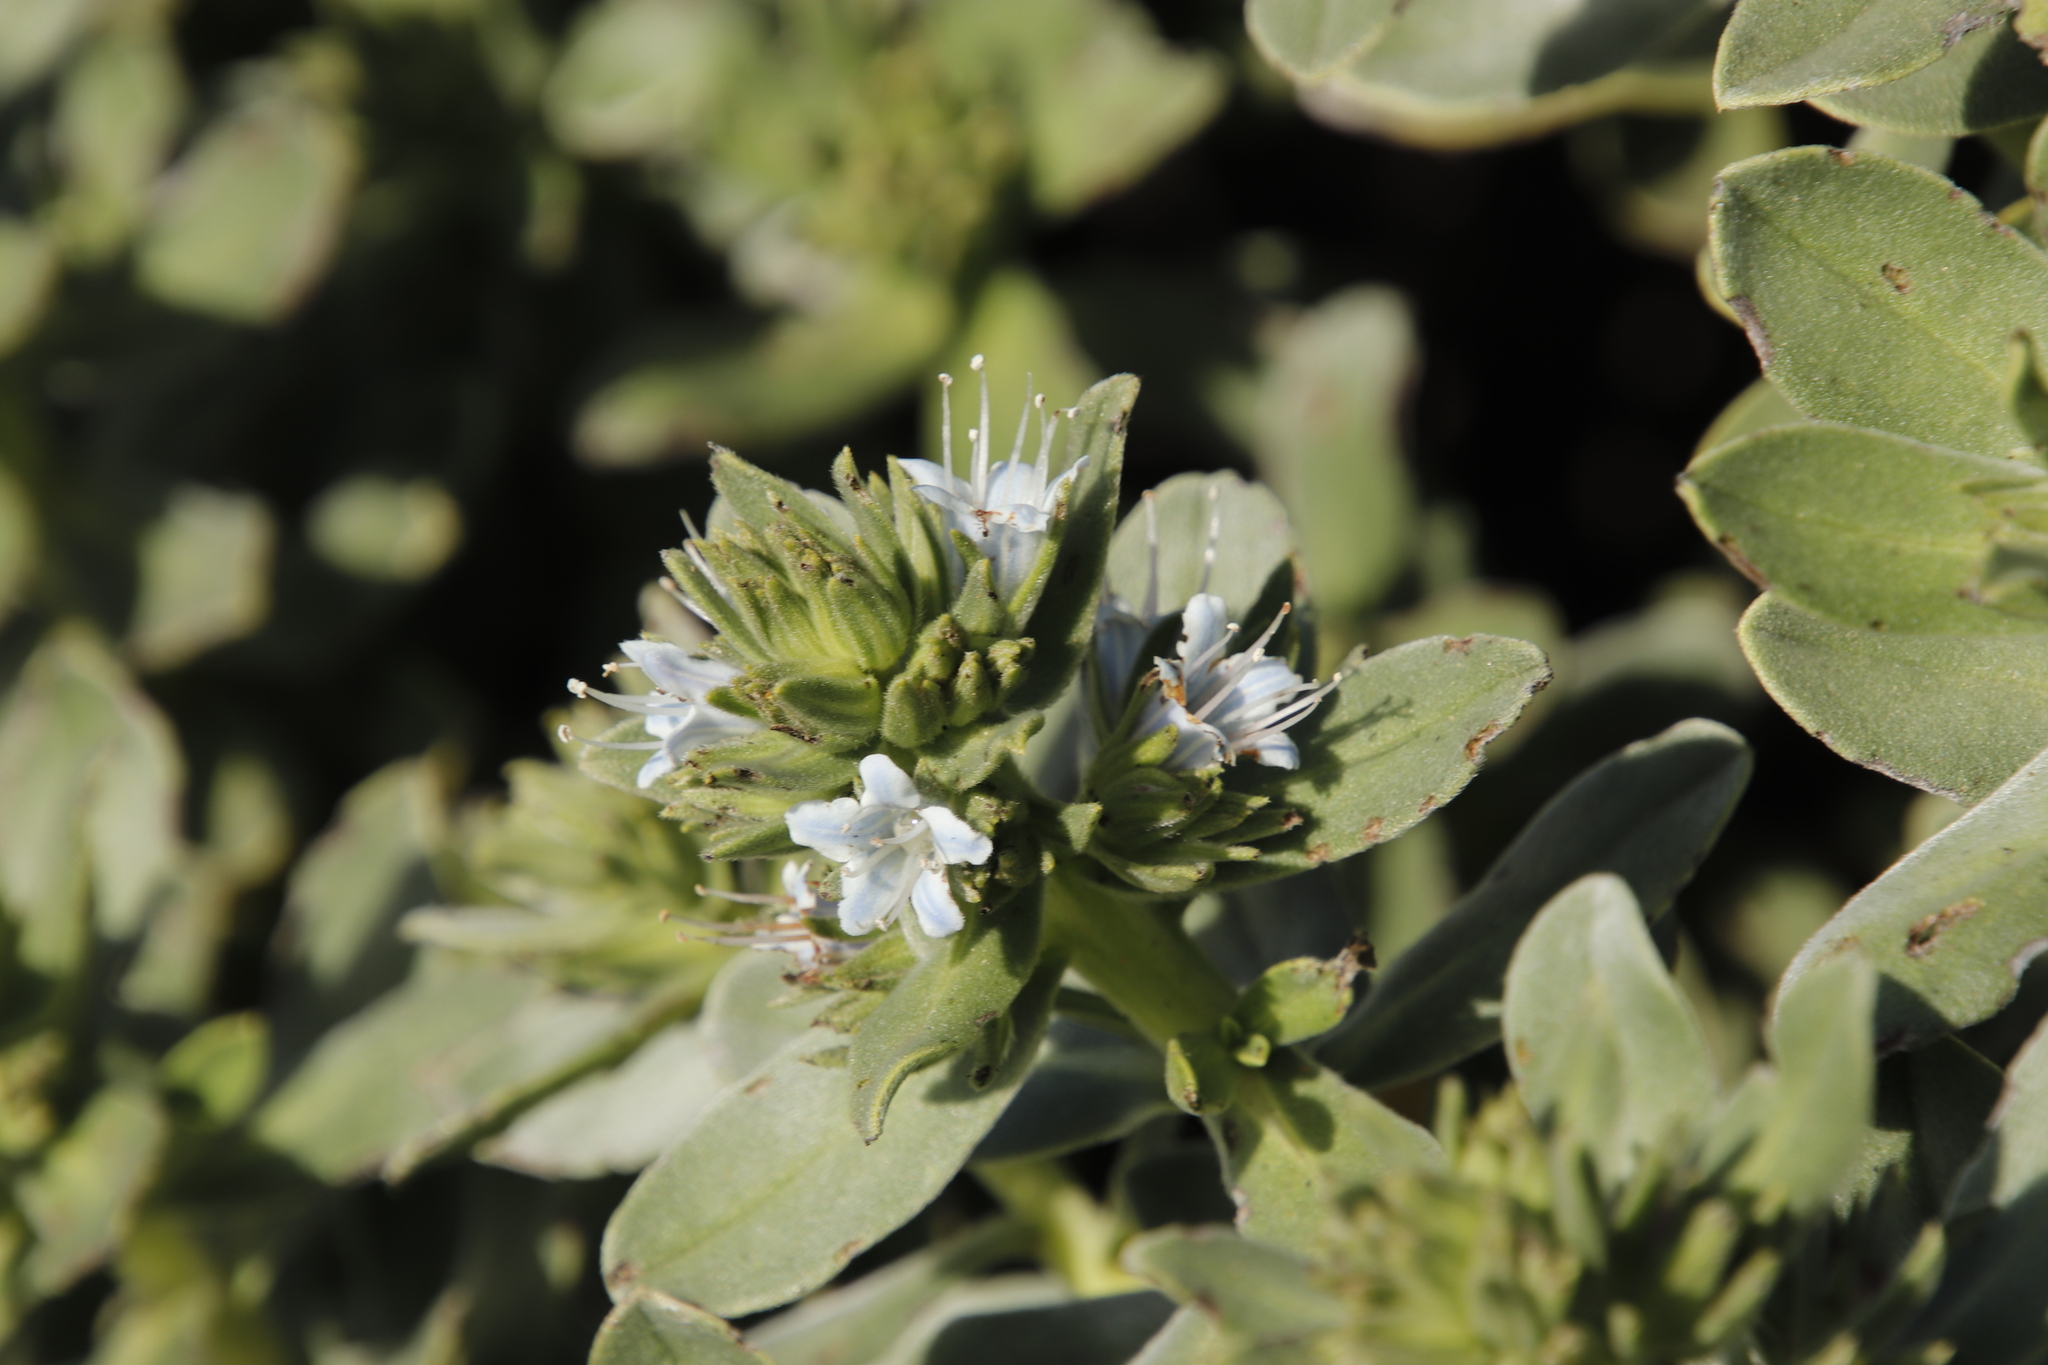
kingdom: Plantae
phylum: Tracheophyta
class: Magnoliopsida
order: Boraginales
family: Boraginaceae
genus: Lobostemon
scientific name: Lobostemon montanus
